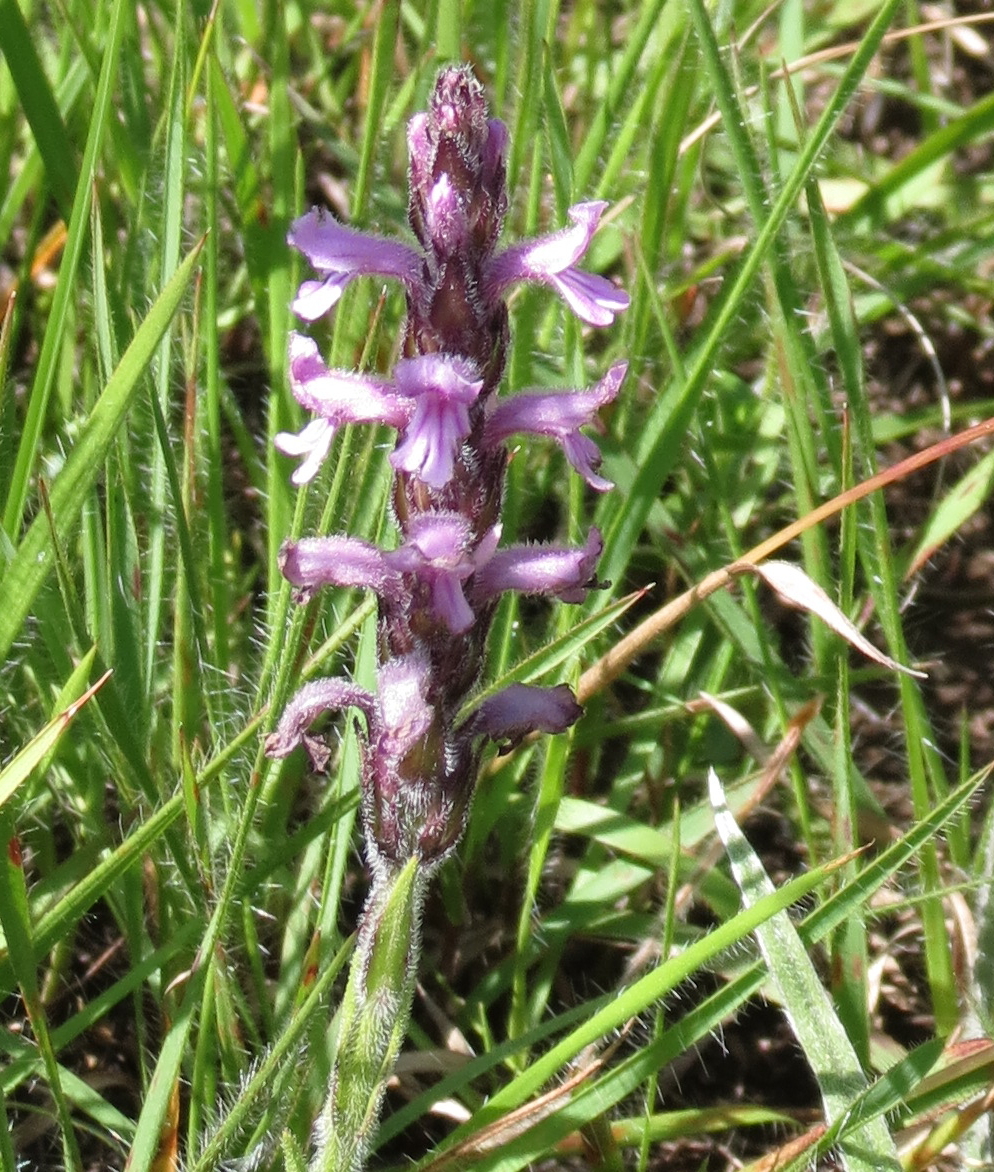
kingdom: Plantae
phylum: Tracheophyta
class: Magnoliopsida
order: Lamiales
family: Orobanchaceae
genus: Striga
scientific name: Striga bilabiata
